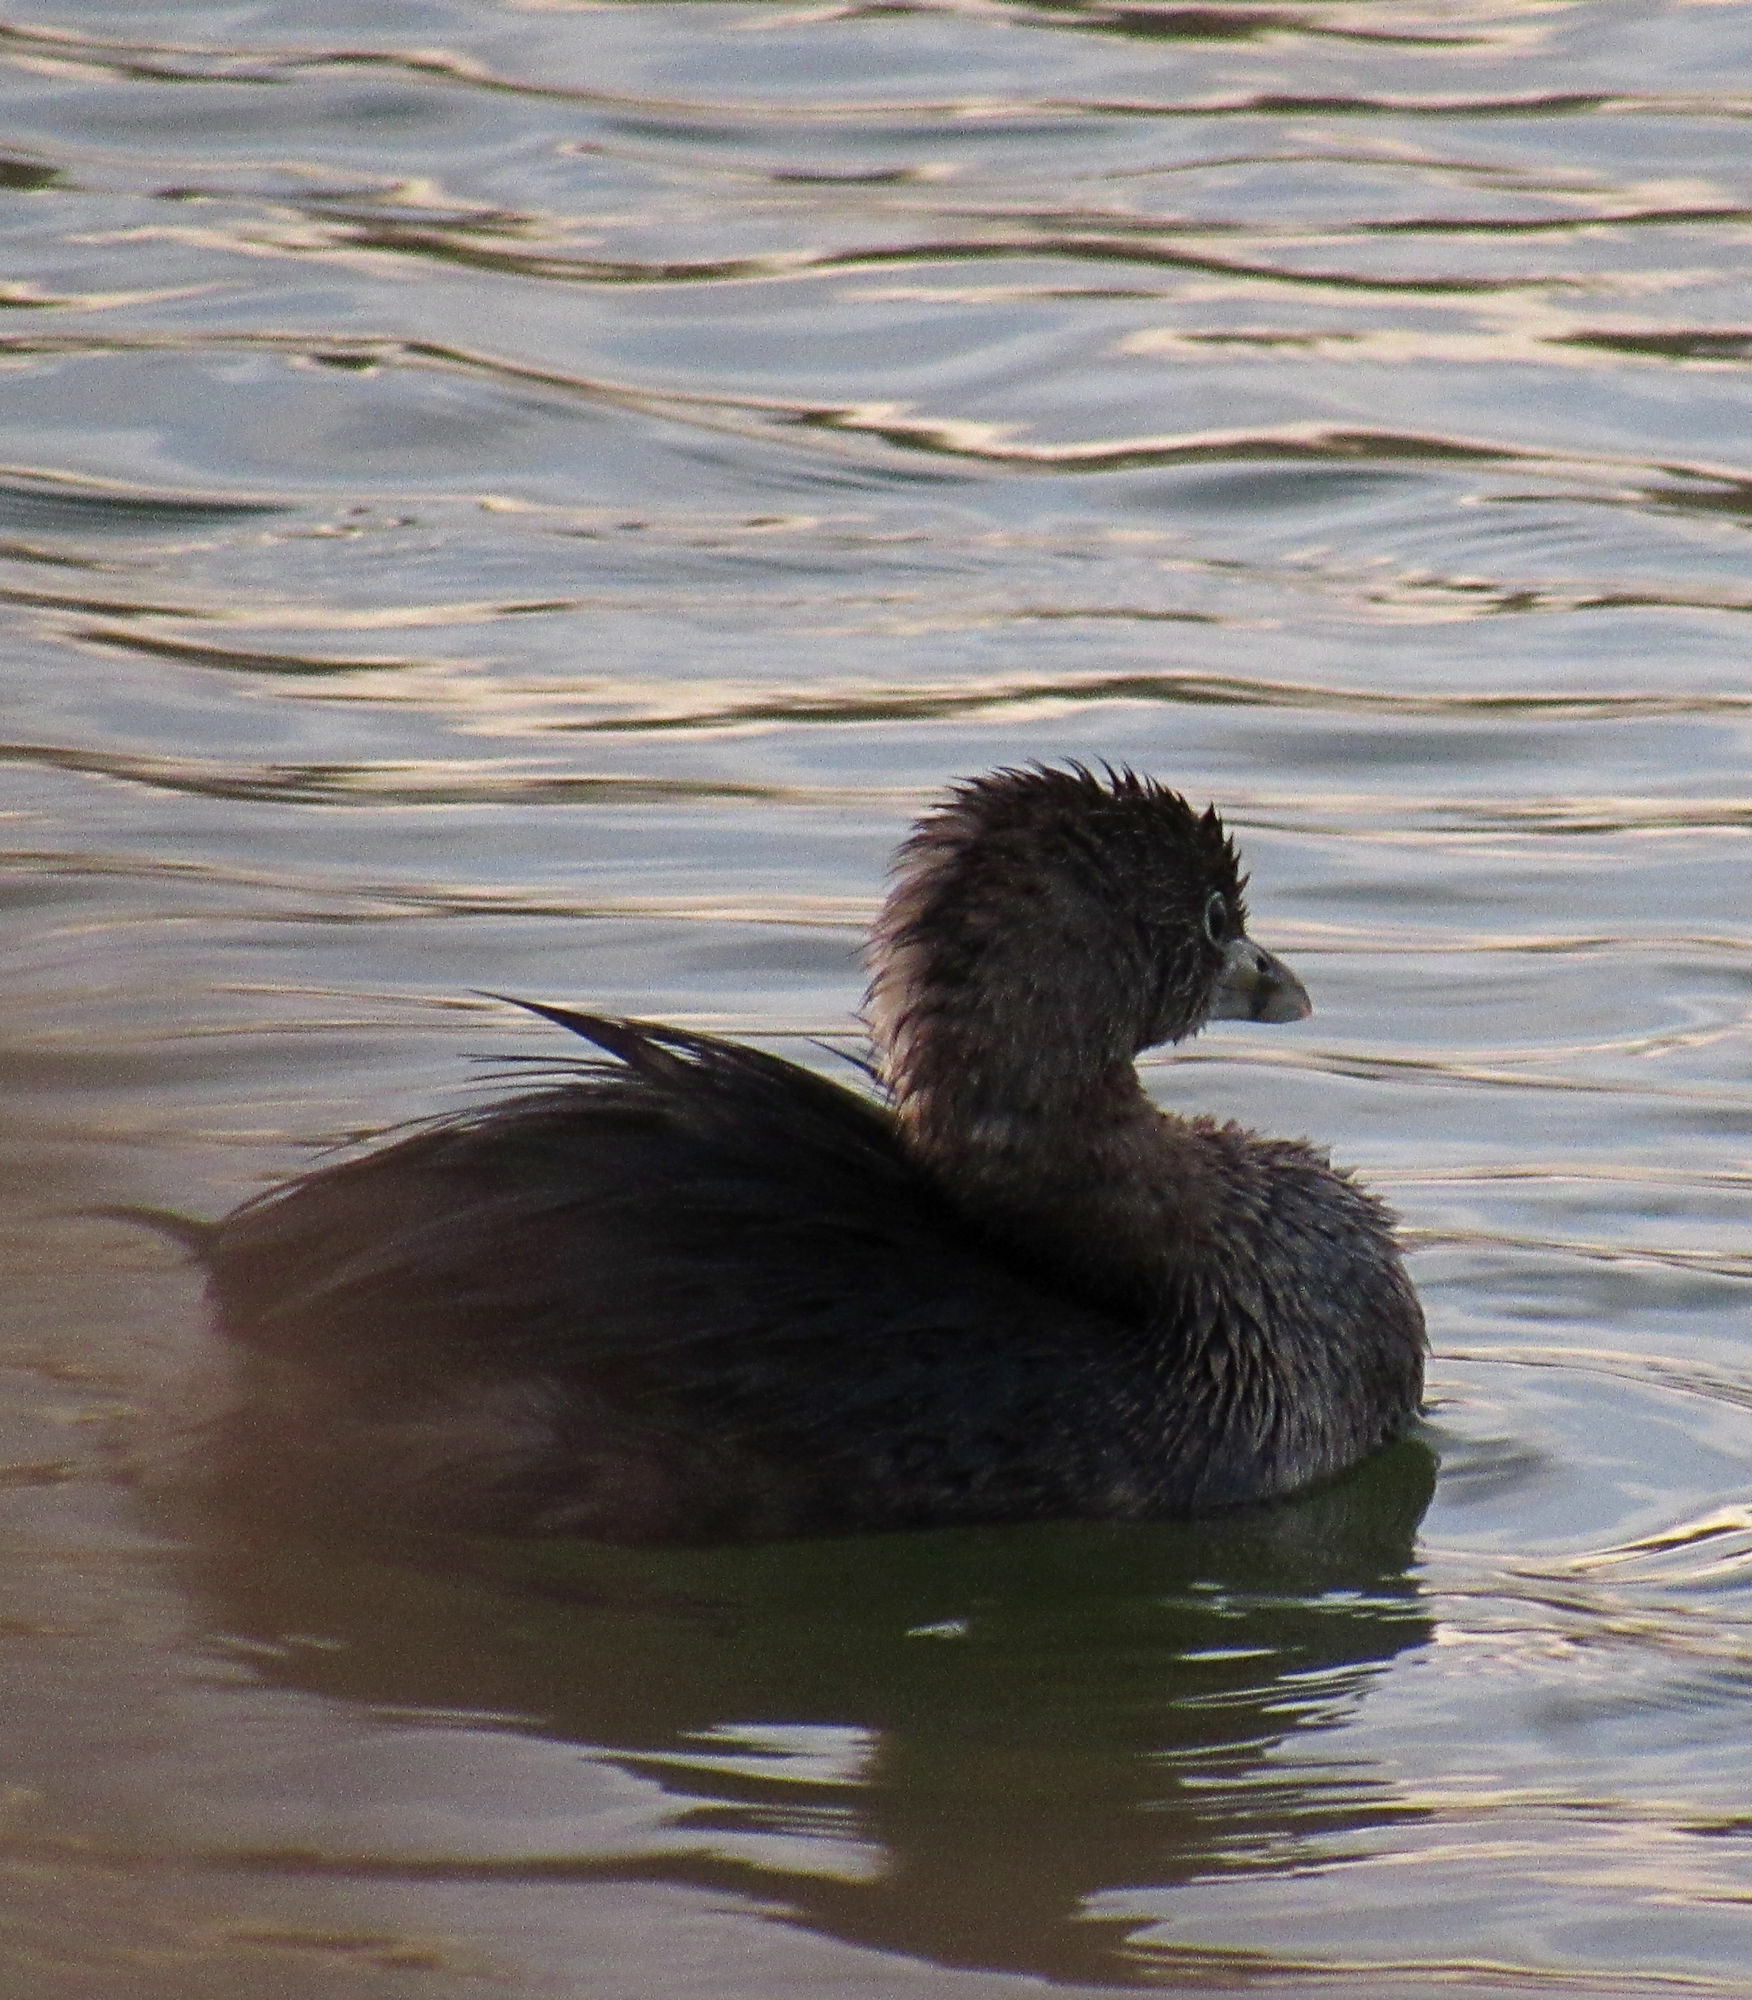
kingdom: Animalia
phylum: Chordata
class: Aves
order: Podicipediformes
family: Podicipedidae
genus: Podilymbus
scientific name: Podilymbus podiceps
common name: Pied-billed grebe
